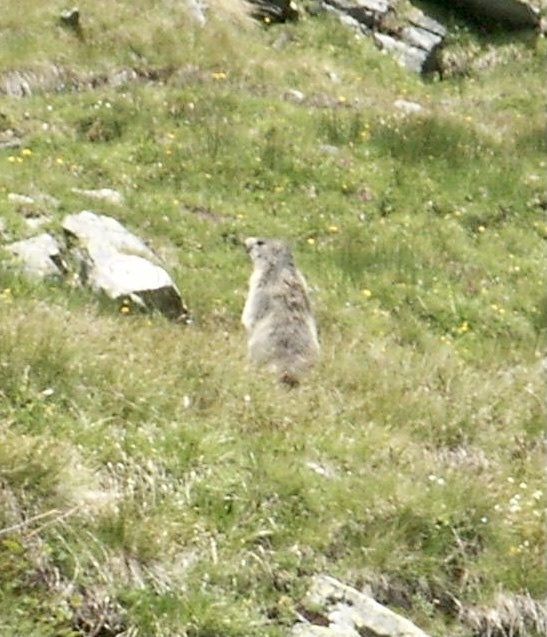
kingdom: Animalia
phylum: Chordata
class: Mammalia
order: Rodentia
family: Sciuridae
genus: Marmota
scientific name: Marmota marmota
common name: Alpine marmot
